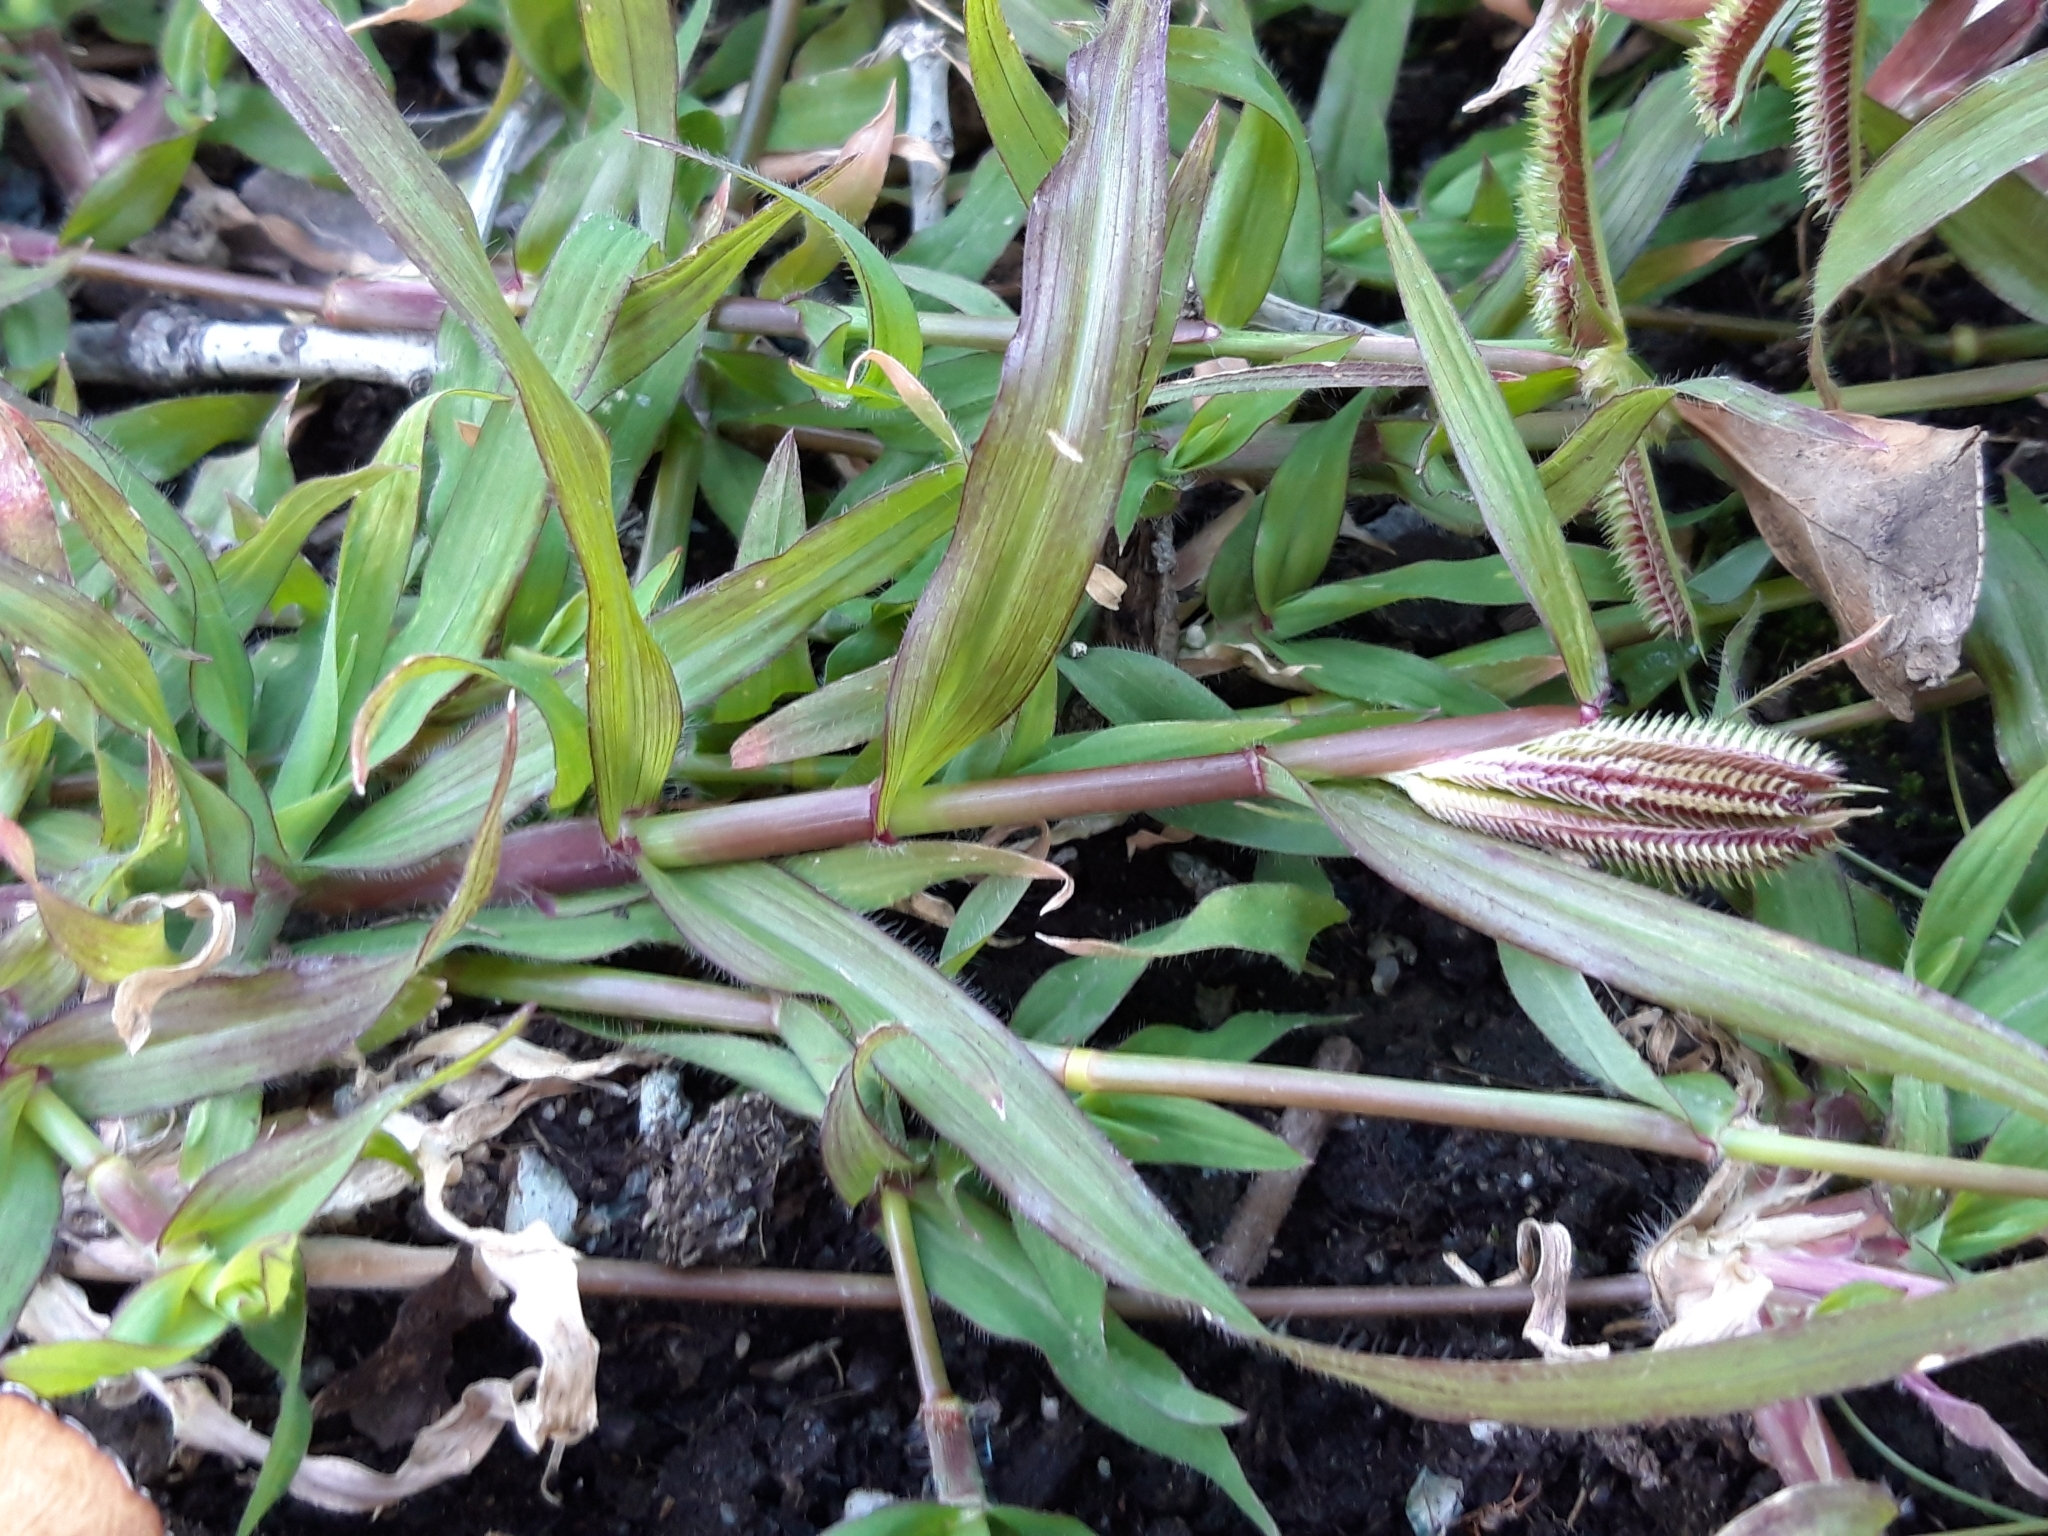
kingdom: Plantae
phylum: Tracheophyta
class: Liliopsida
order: Poales
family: Poaceae
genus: Dactyloctenium
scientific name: Dactyloctenium aegyptium
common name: Egyptian grass
